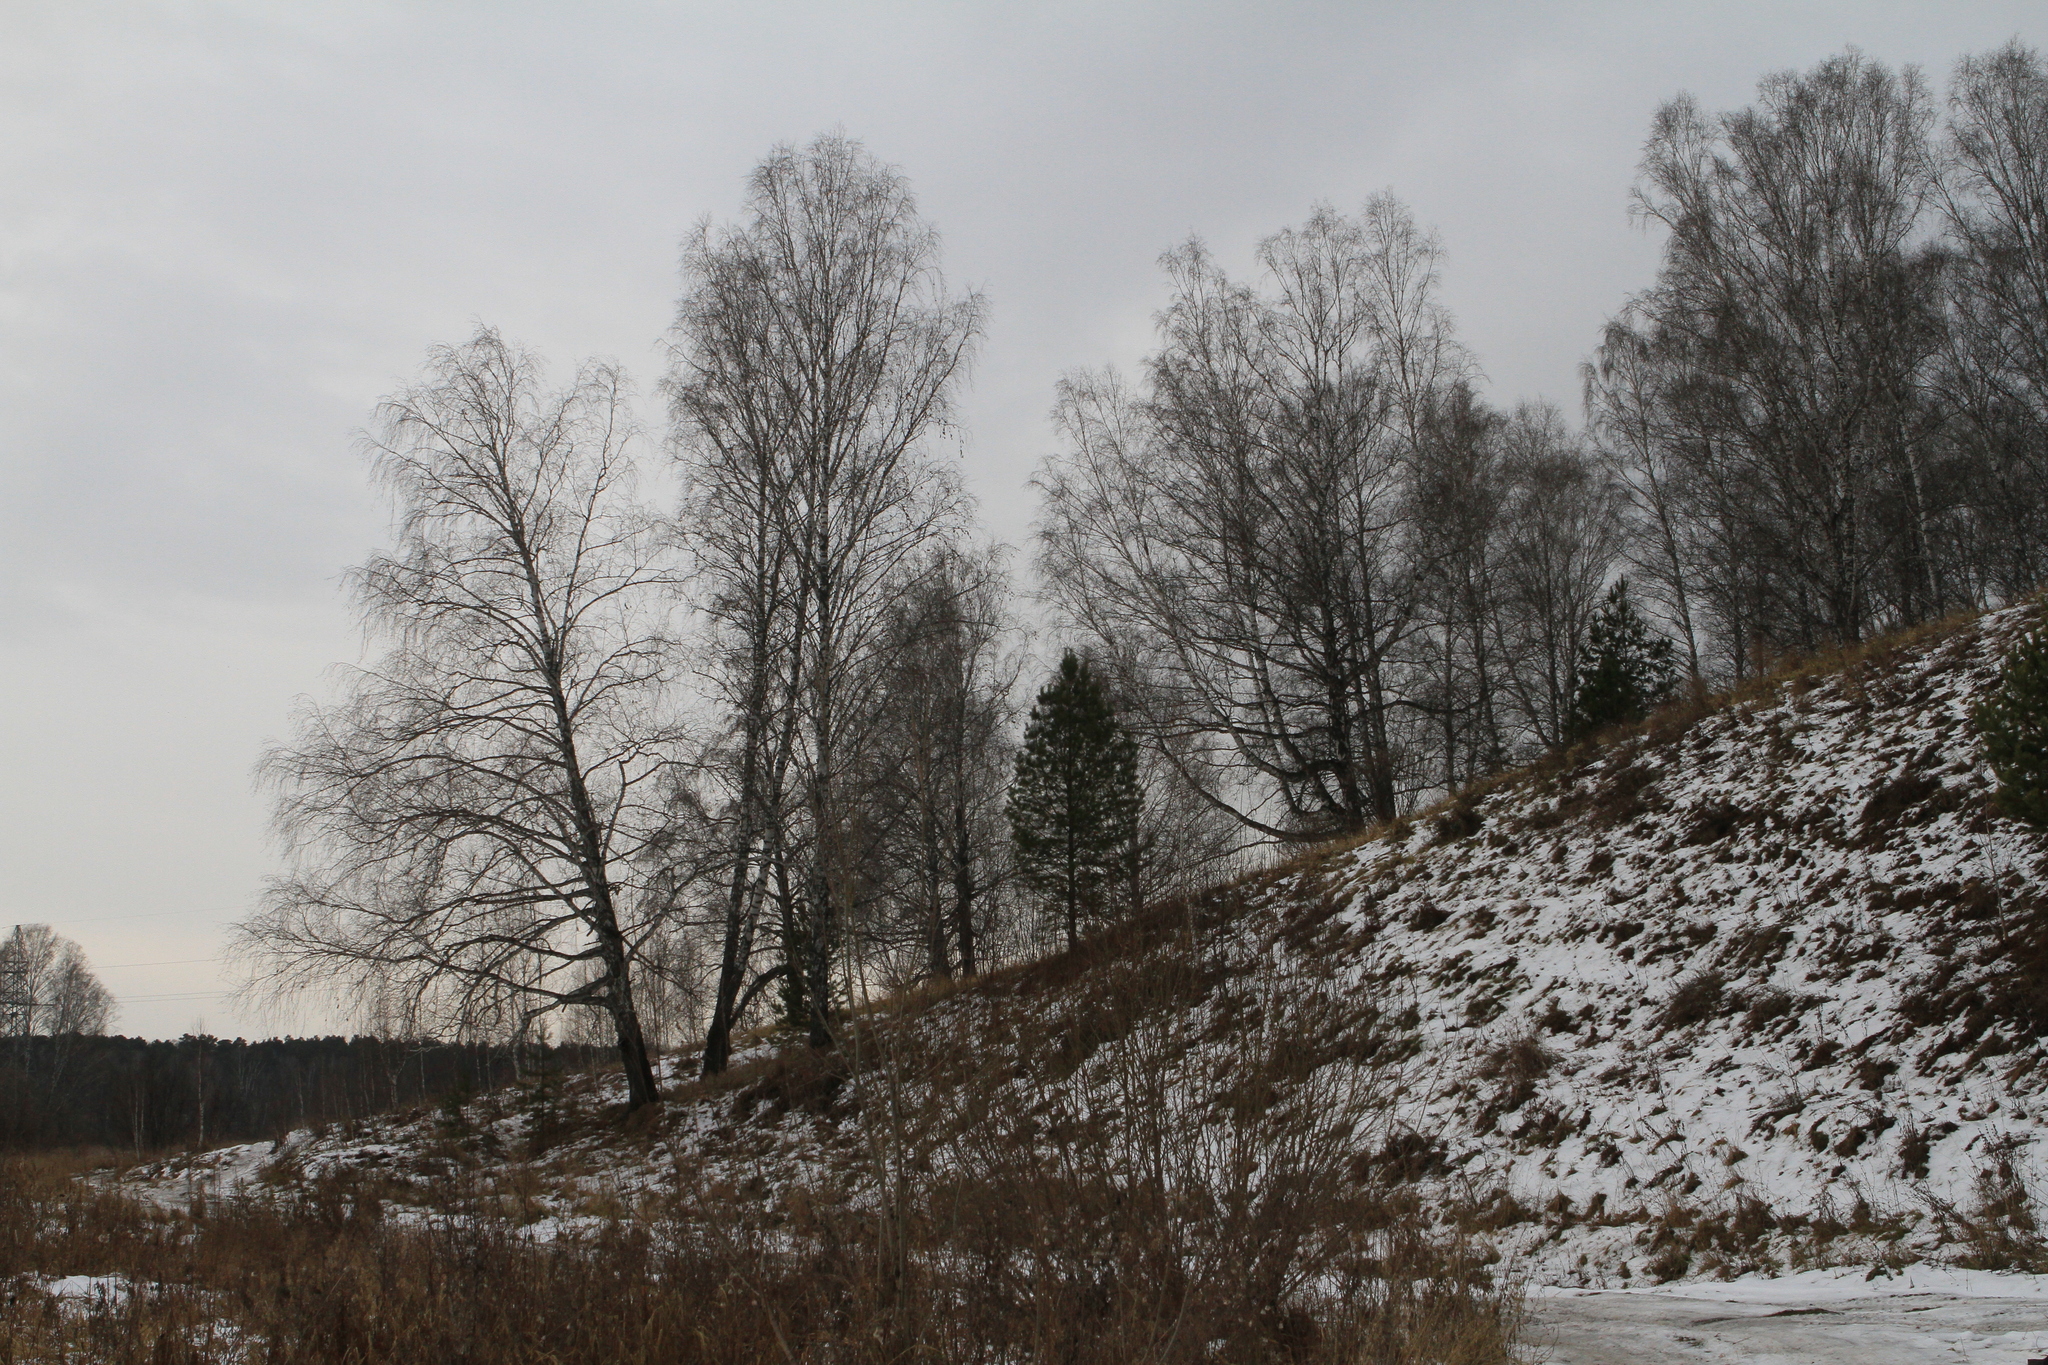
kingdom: Plantae
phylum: Tracheophyta
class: Pinopsida
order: Pinales
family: Pinaceae
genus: Pinus
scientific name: Pinus sylvestris
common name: Scots pine
